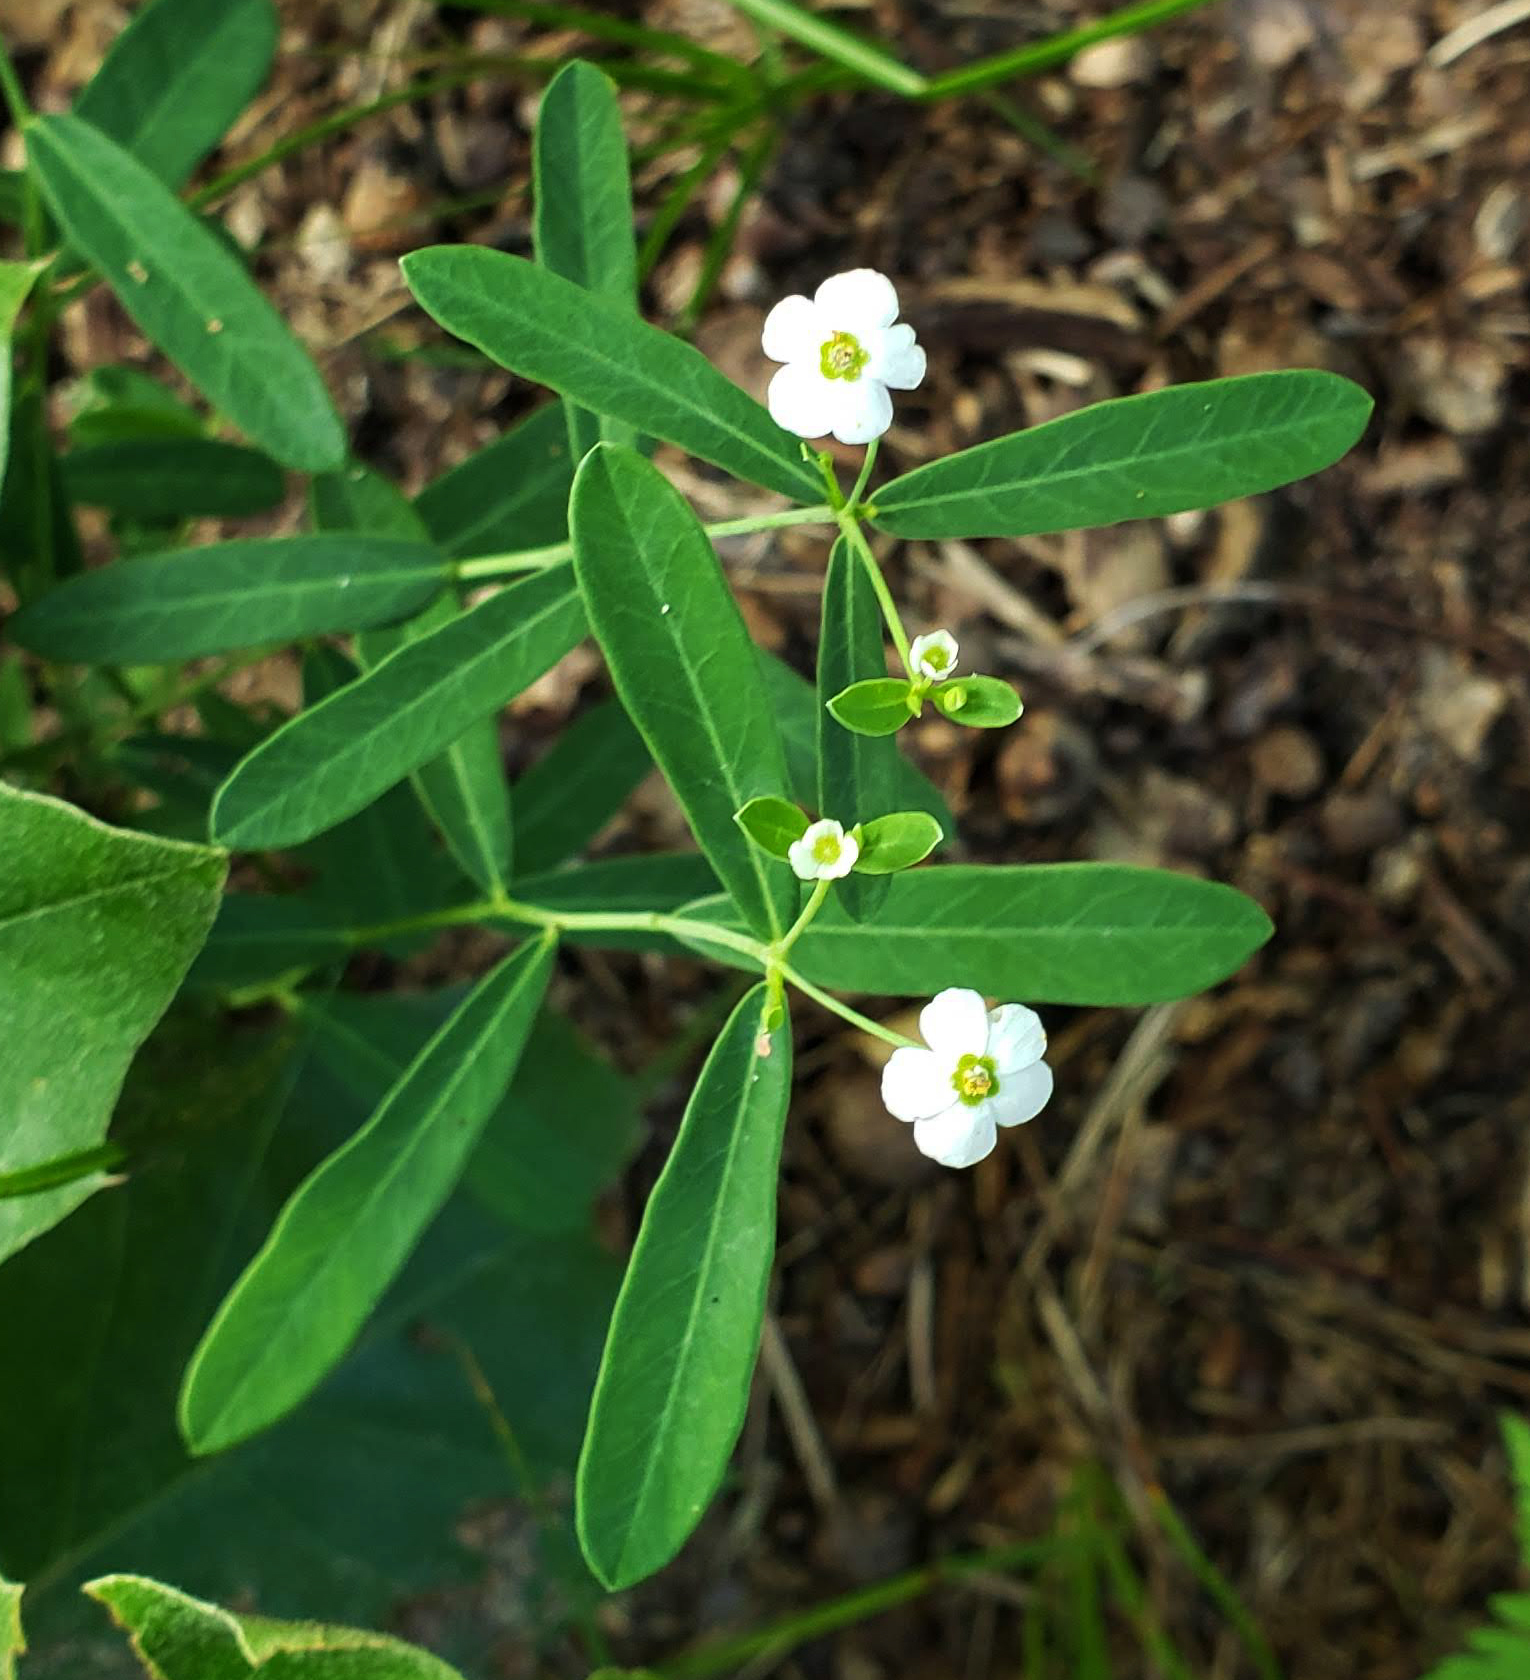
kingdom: Plantae
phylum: Tracheophyta
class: Magnoliopsida
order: Malpighiales
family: Euphorbiaceae
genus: Euphorbia
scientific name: Euphorbia corollata
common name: Flowering spurge
